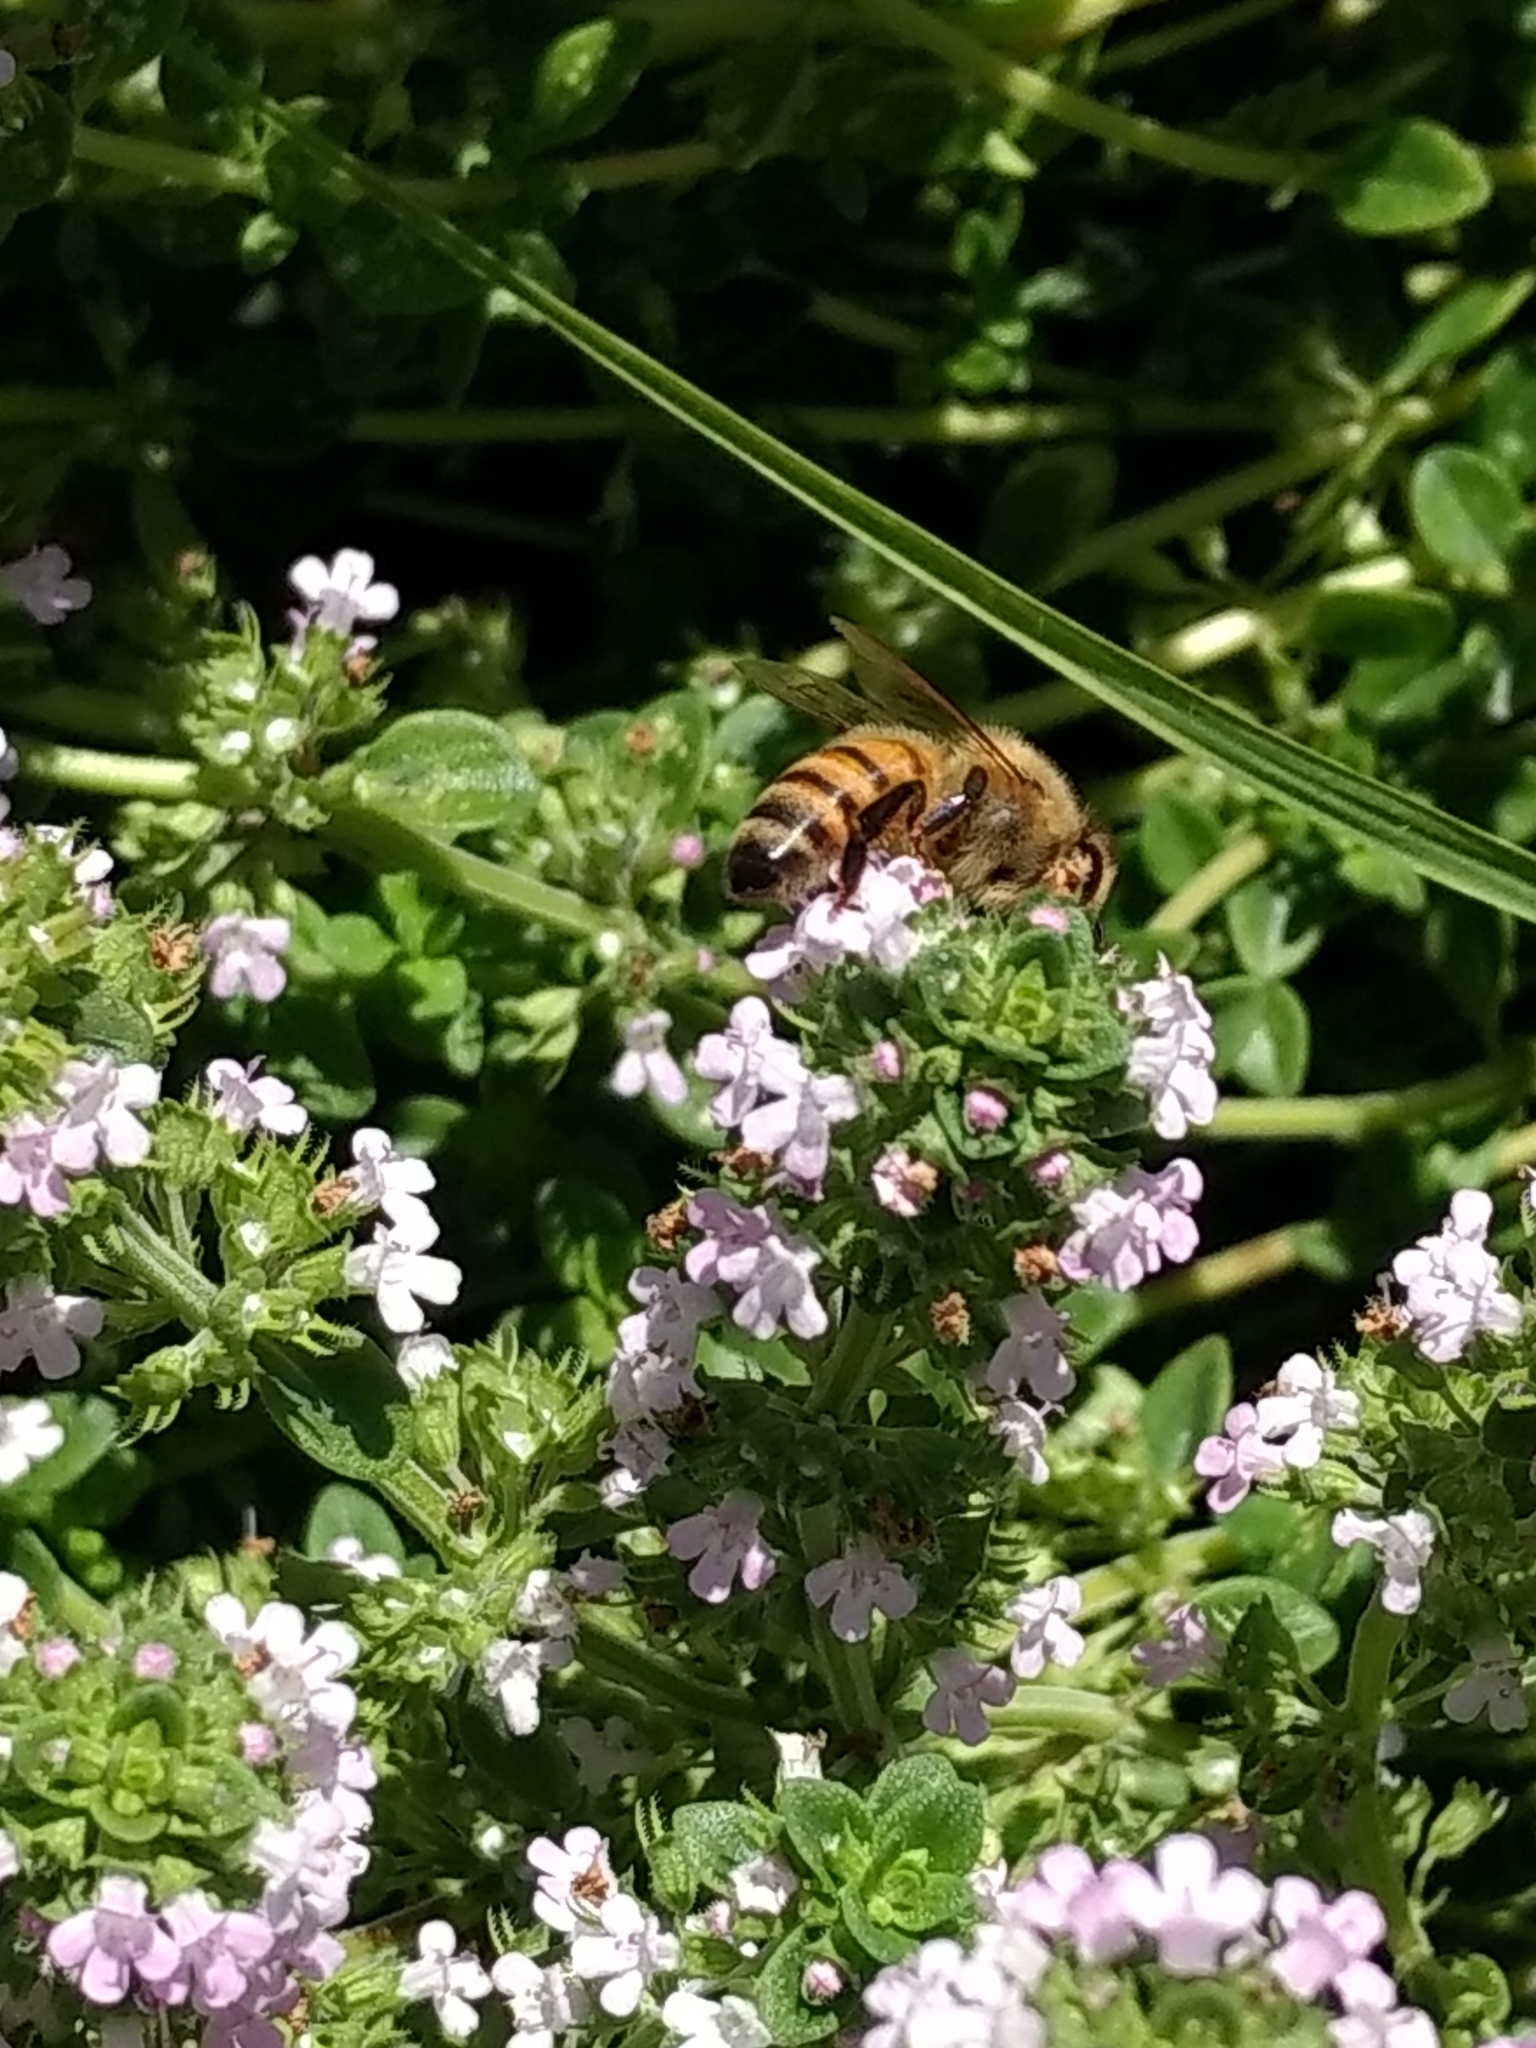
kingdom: Animalia
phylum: Arthropoda
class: Insecta
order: Hymenoptera
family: Apidae
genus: Apis
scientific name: Apis mellifera
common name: Honey bee
